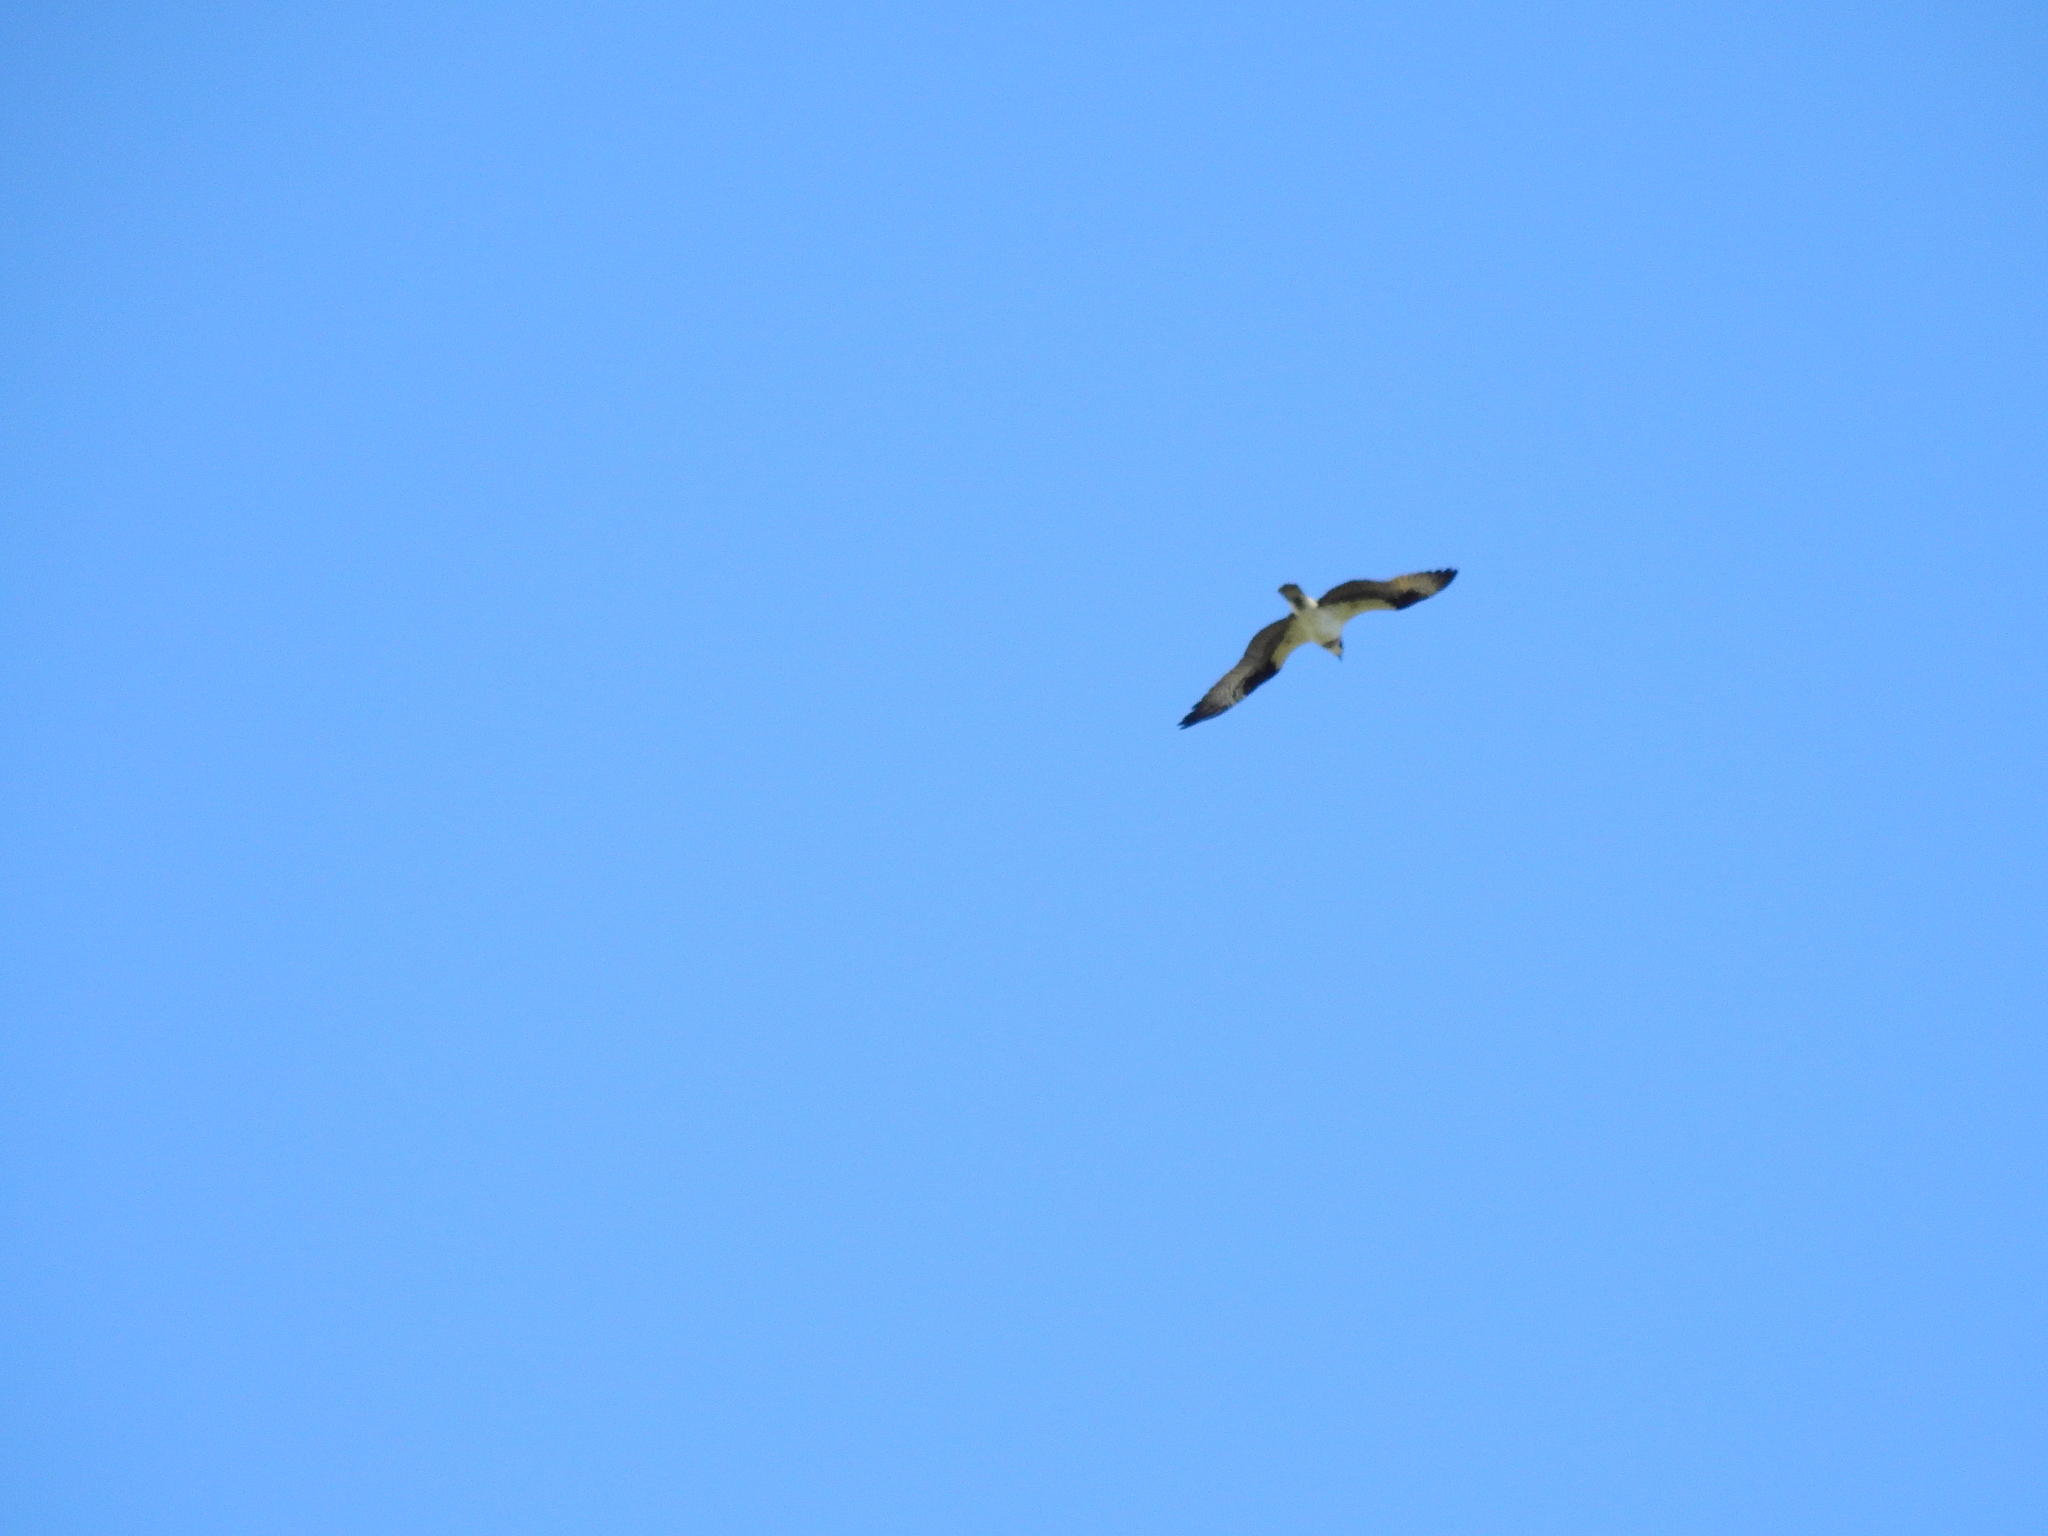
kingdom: Animalia
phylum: Chordata
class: Aves
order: Accipitriformes
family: Pandionidae
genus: Pandion
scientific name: Pandion haliaetus
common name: Osprey
